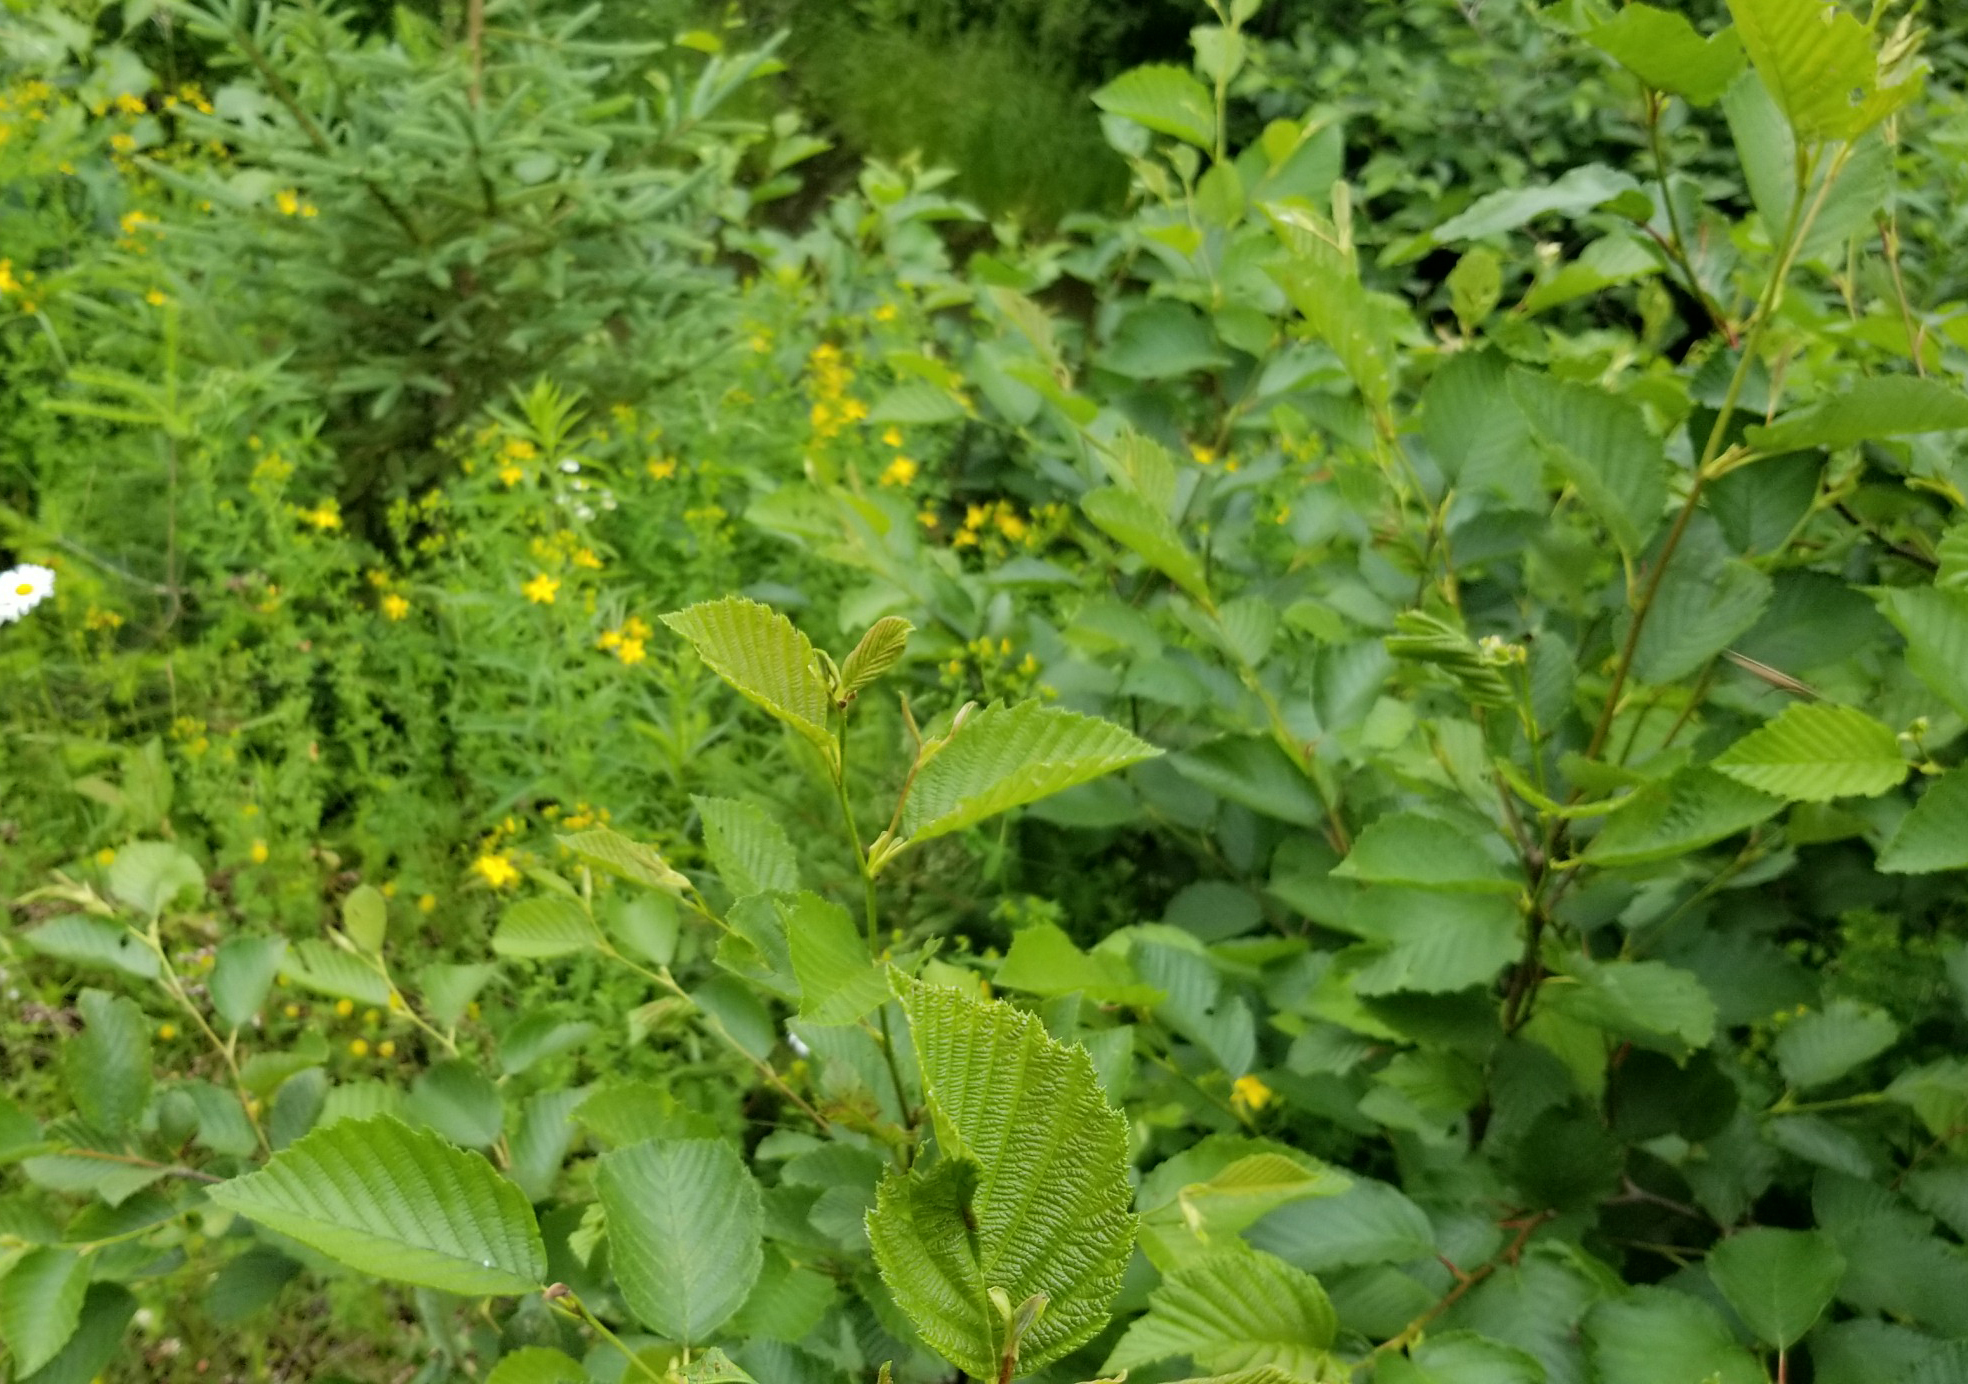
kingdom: Plantae
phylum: Tracheophyta
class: Magnoliopsida
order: Fagales
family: Betulaceae
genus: Alnus
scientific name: Alnus incana
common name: Grey alder
